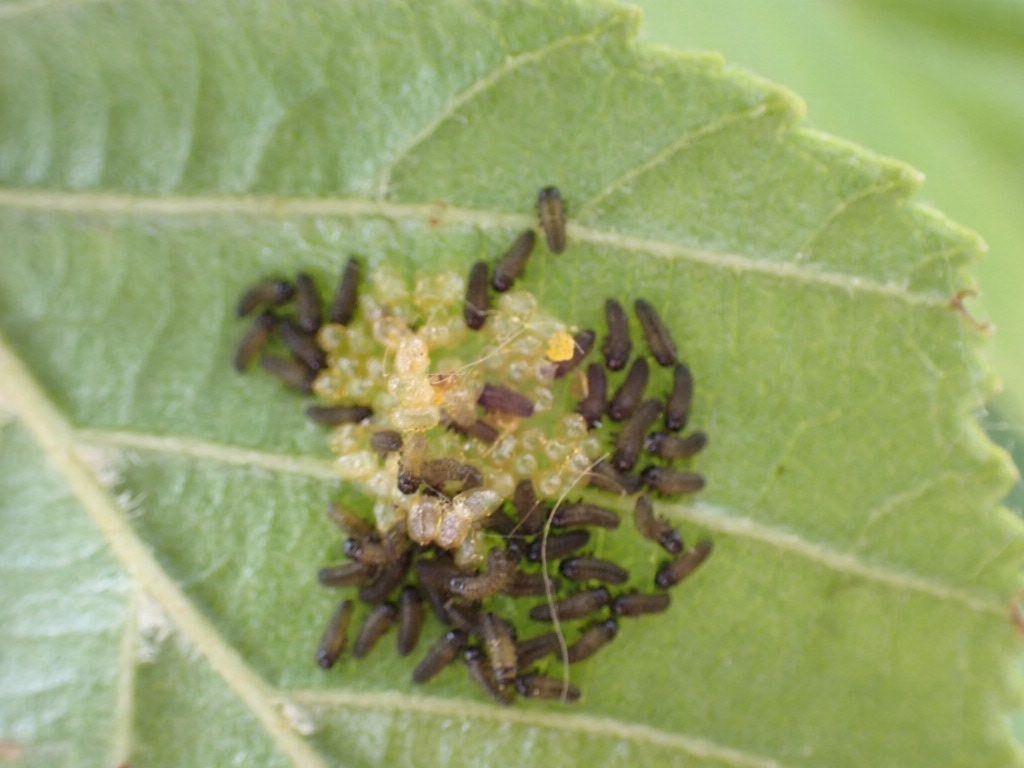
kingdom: Animalia
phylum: Arthropoda
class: Insecta
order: Coleoptera
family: Chrysomelidae
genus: Agelastica
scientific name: Agelastica alni
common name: Alder leaf beetle
